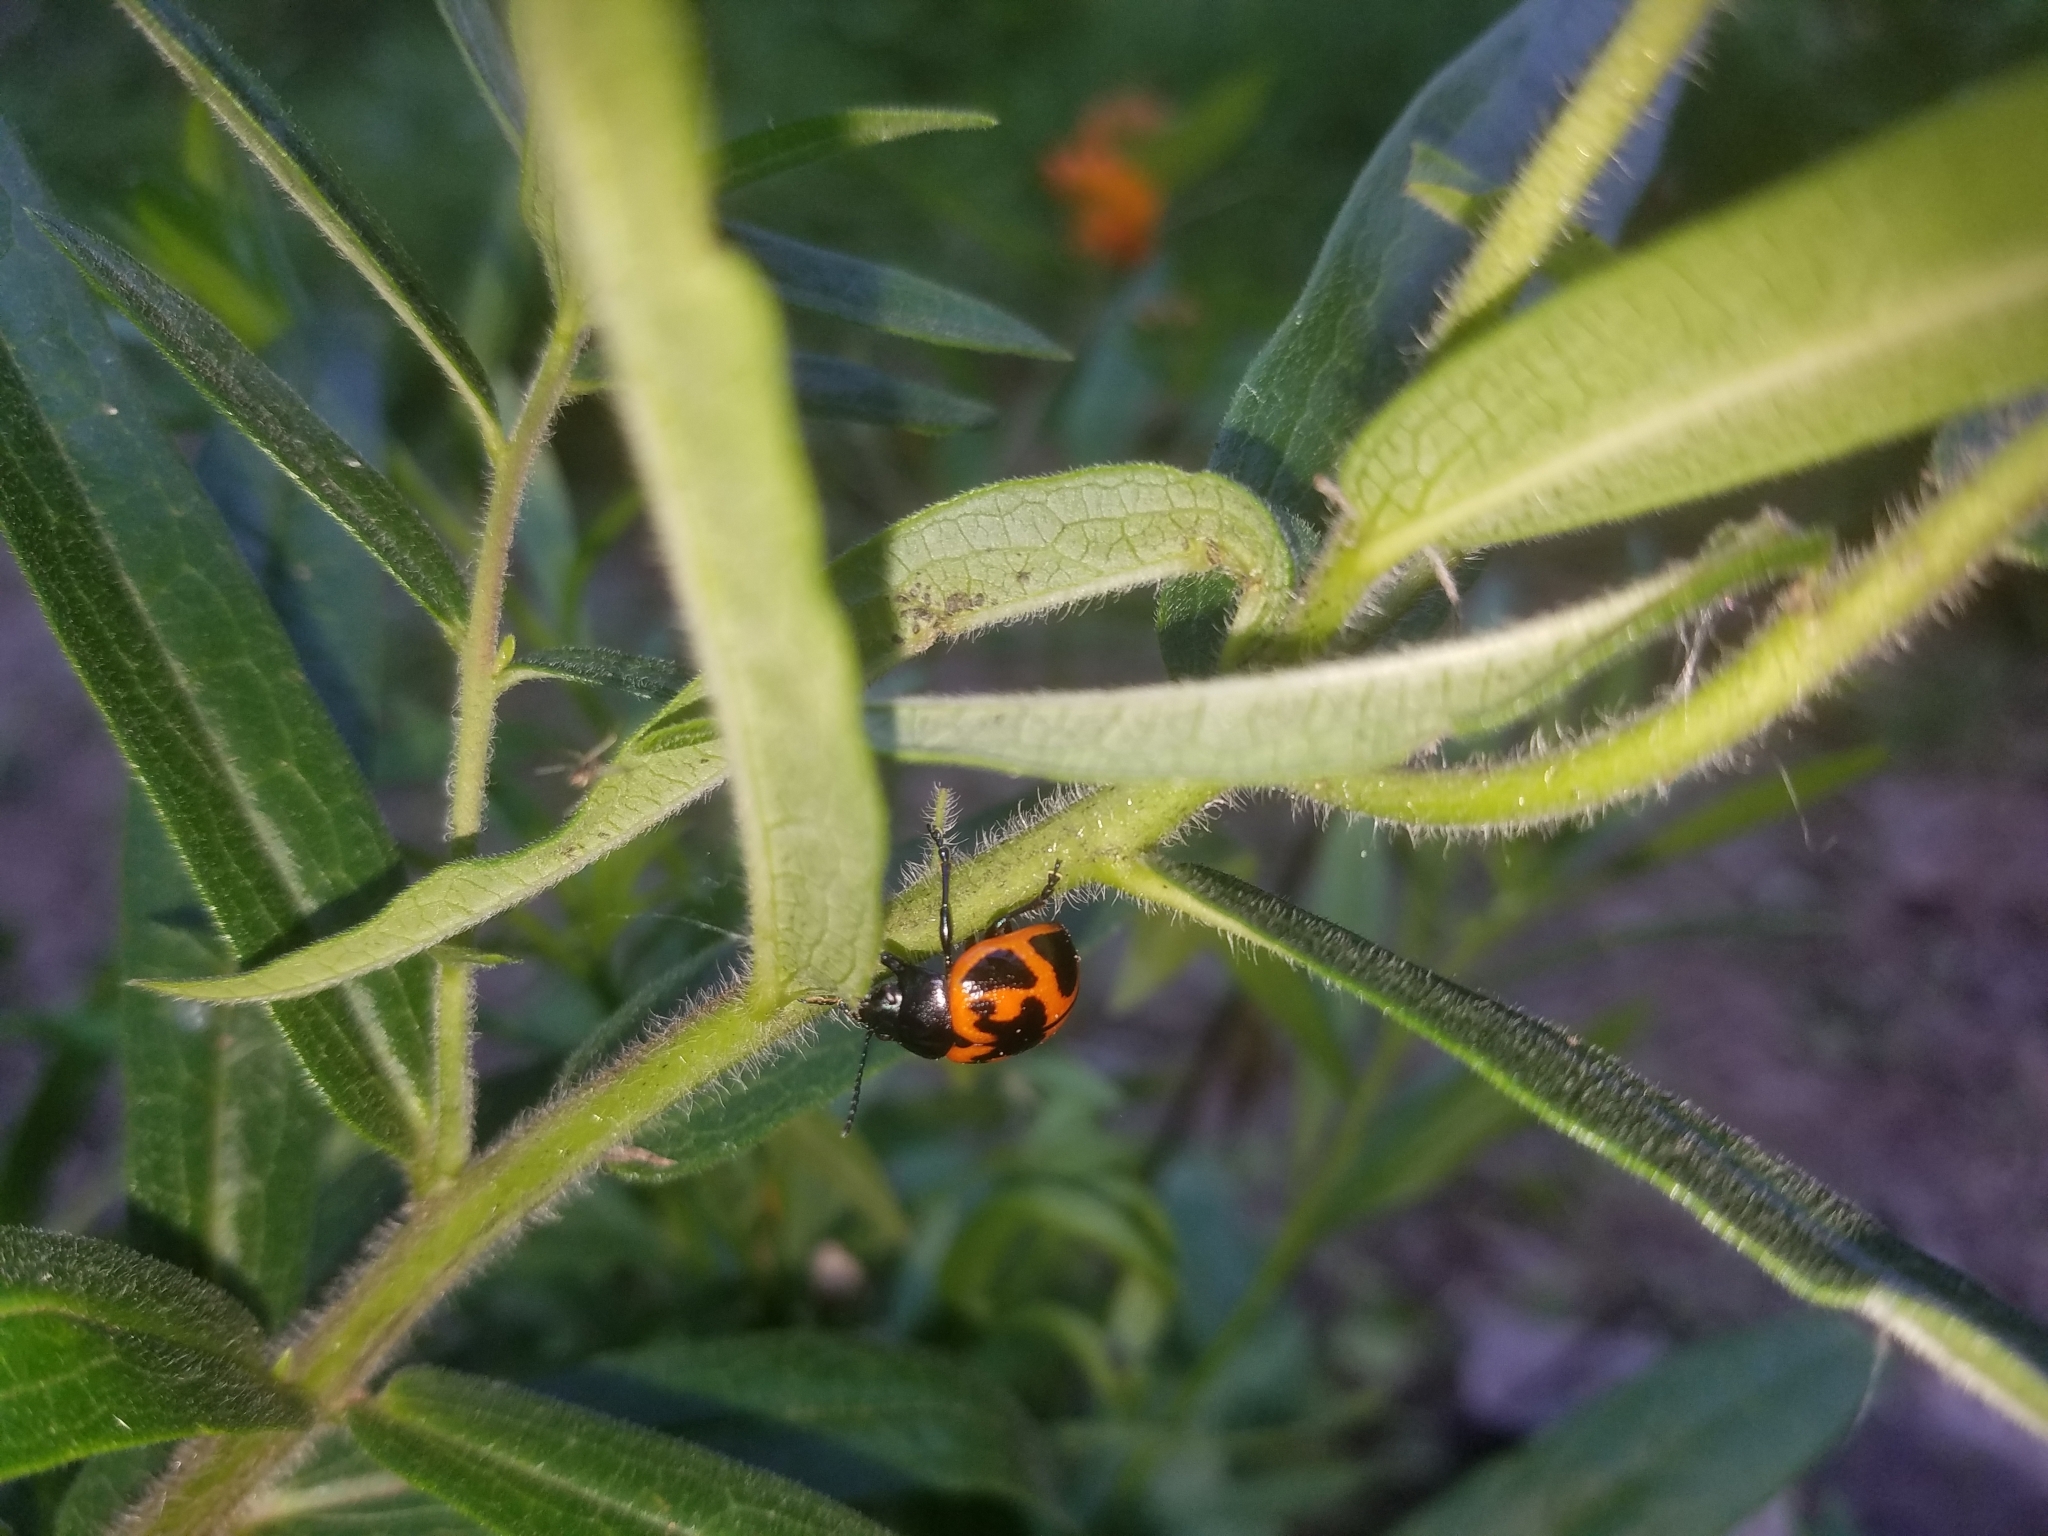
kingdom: Animalia
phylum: Arthropoda
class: Insecta
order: Coleoptera
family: Chrysomelidae
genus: Labidomera
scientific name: Labidomera clivicollis
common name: Swamp milkweed leaf beetle
